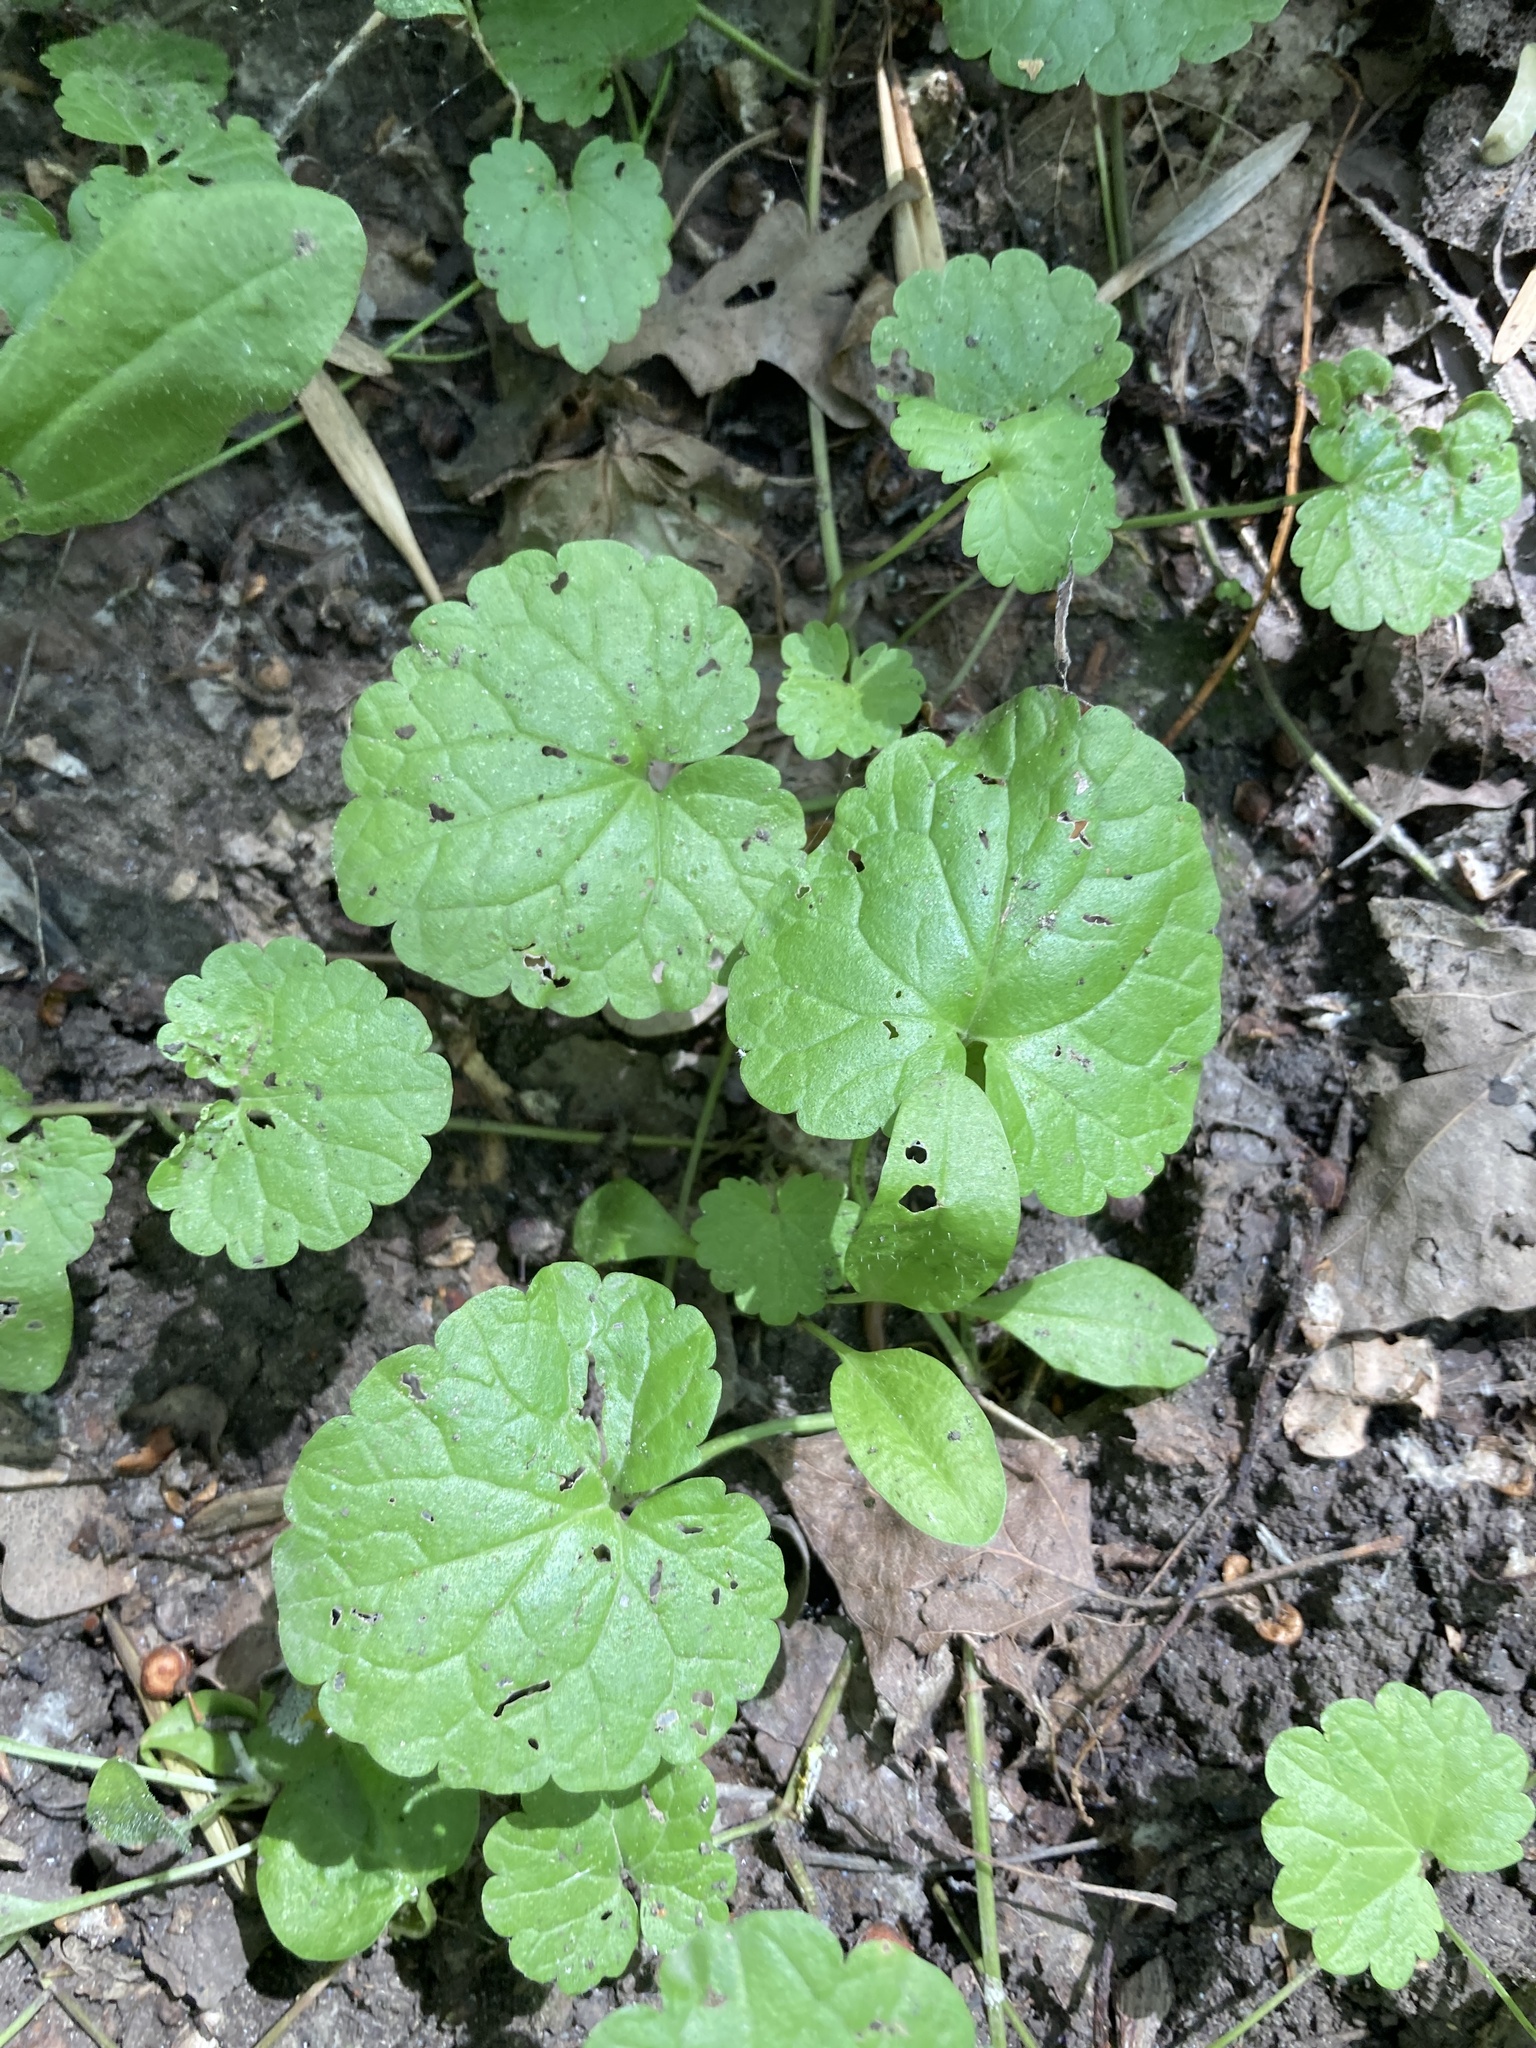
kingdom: Plantae
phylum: Tracheophyta
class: Magnoliopsida
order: Lamiales
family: Lamiaceae
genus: Glechoma
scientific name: Glechoma hederacea
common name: Ground ivy
